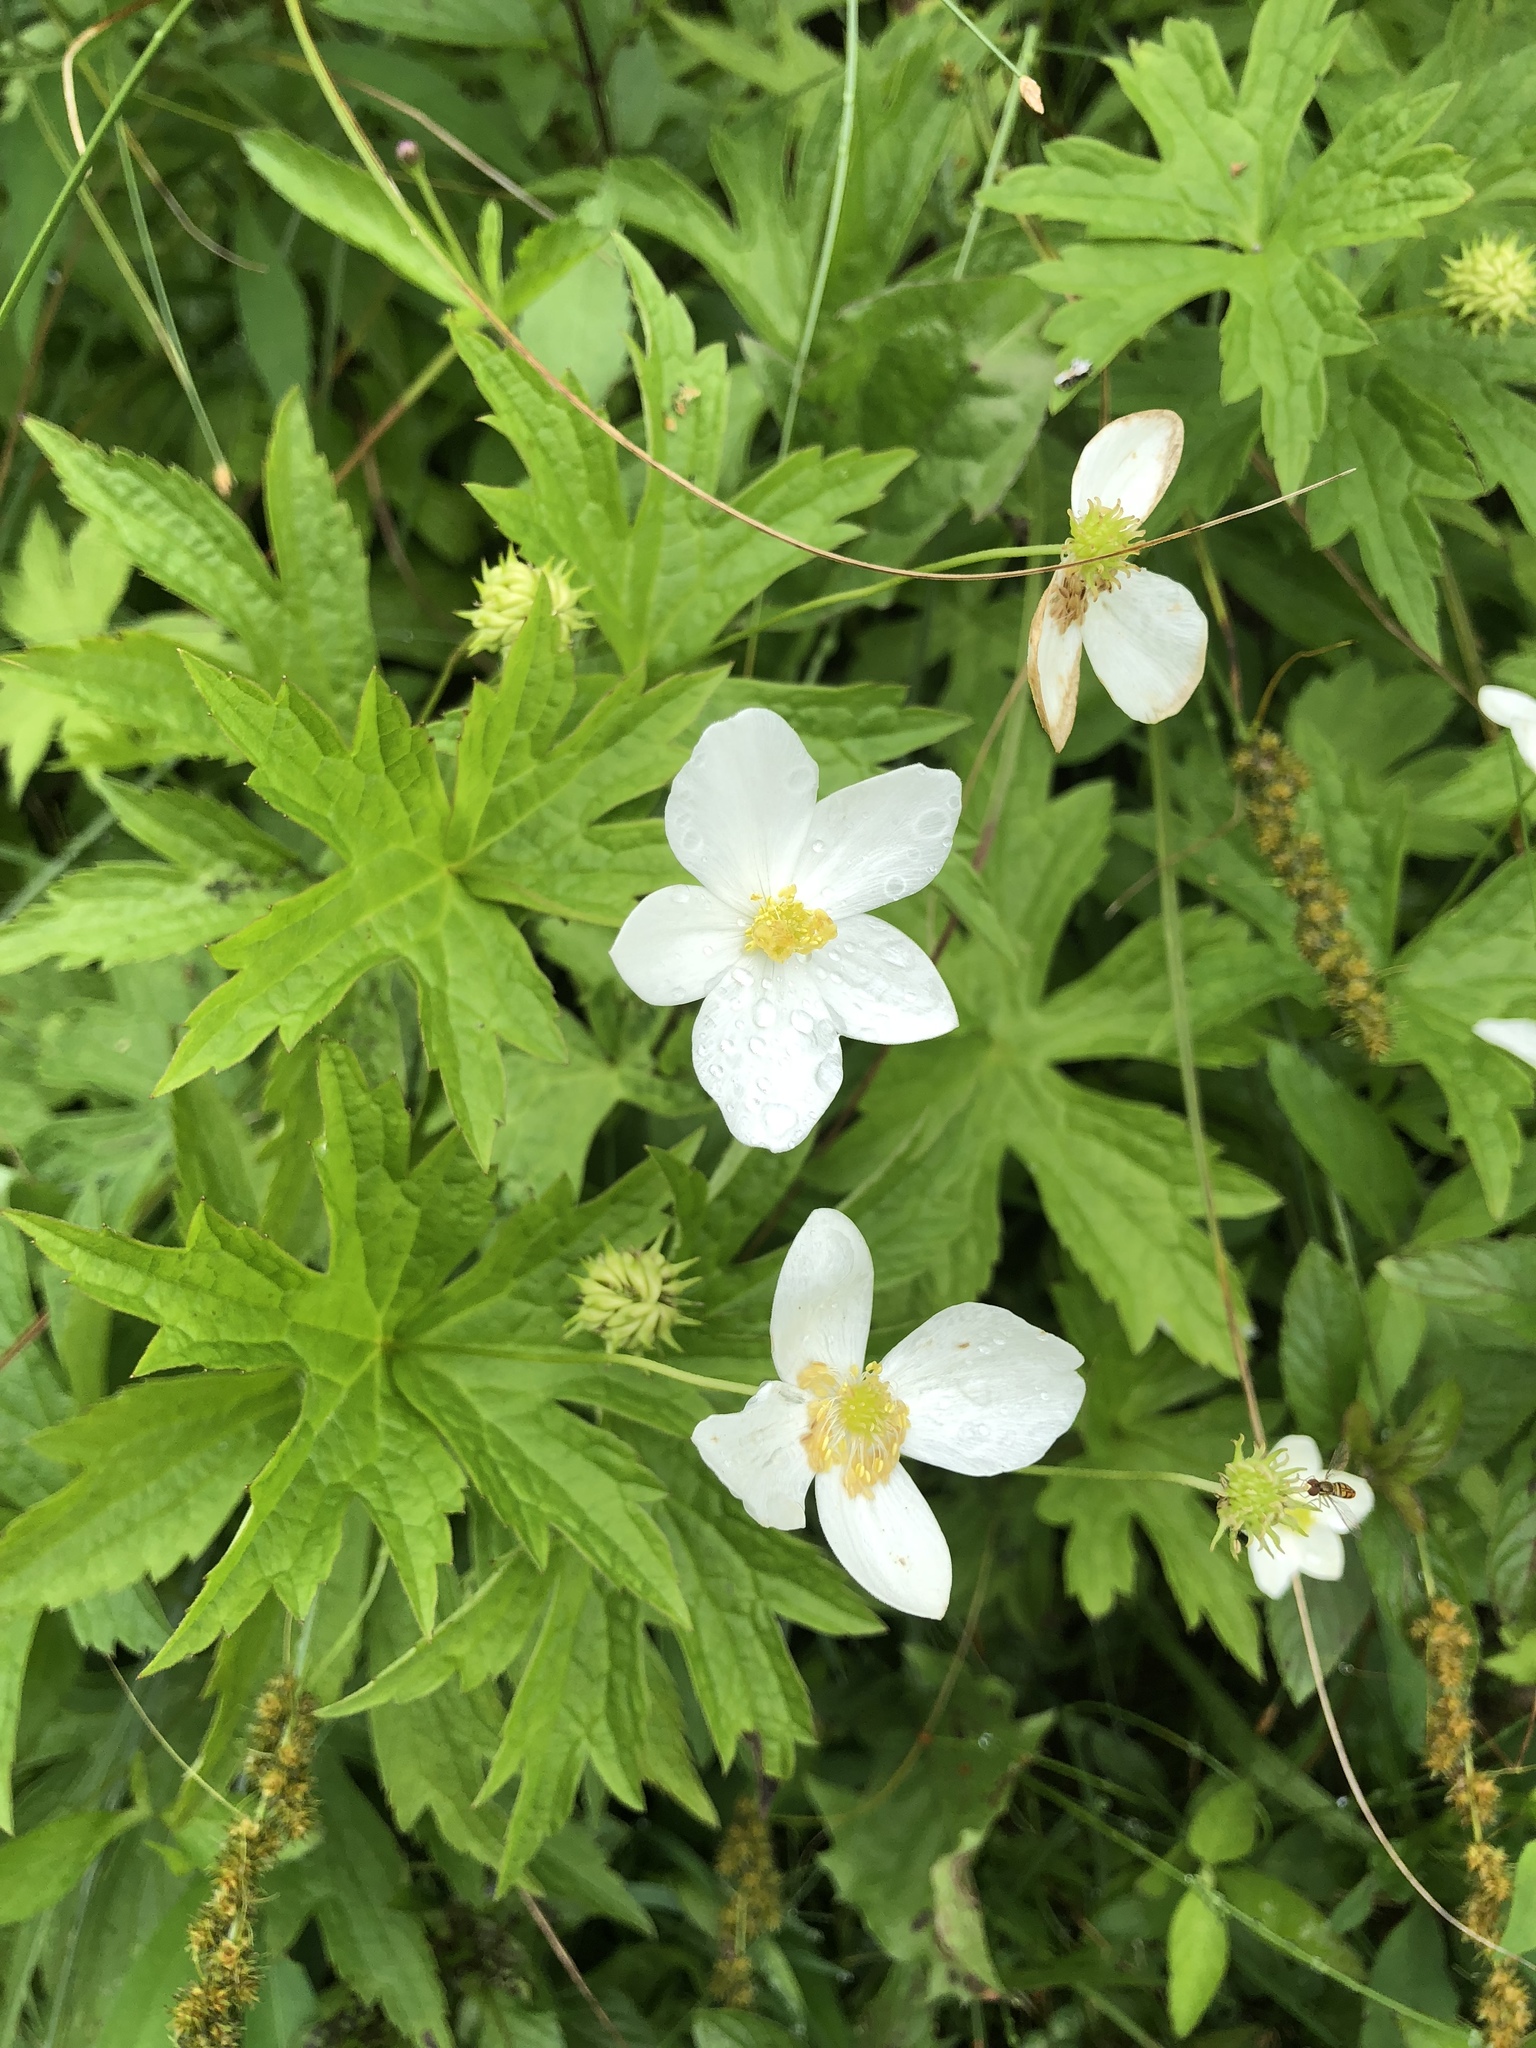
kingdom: Plantae
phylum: Tracheophyta
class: Magnoliopsida
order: Ranunculales
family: Ranunculaceae
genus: Anemonastrum
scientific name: Anemonastrum canadense
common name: Canada anemone
